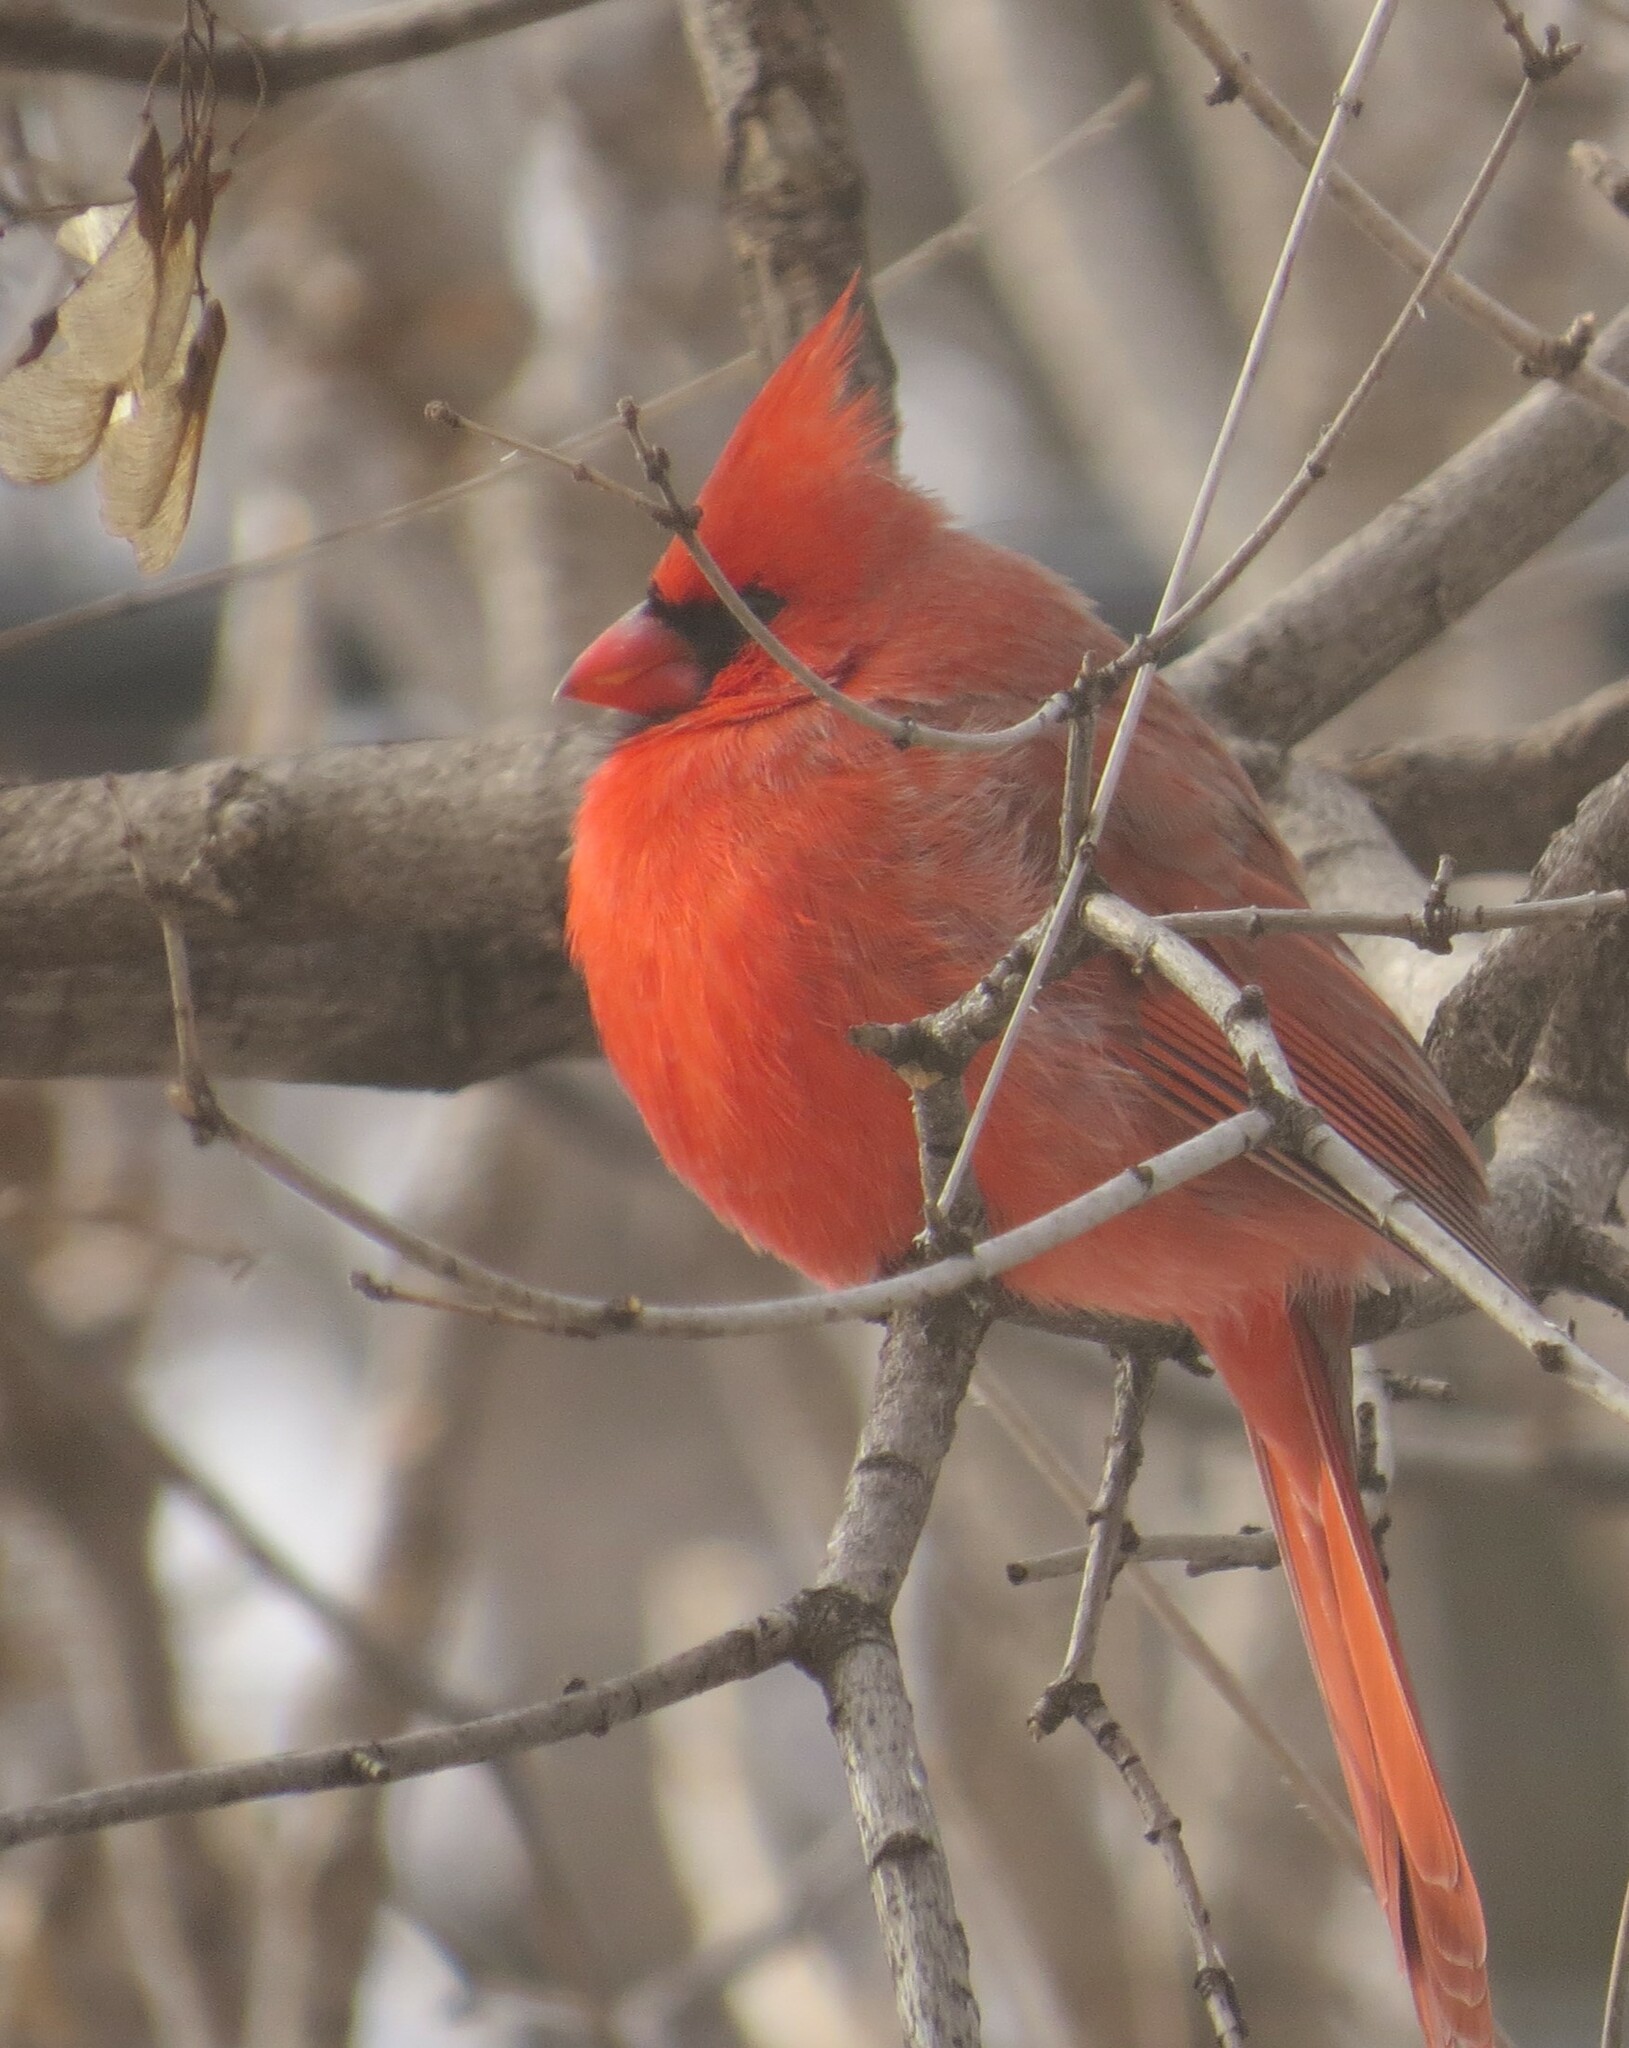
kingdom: Animalia
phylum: Chordata
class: Aves
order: Passeriformes
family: Cardinalidae
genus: Cardinalis
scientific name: Cardinalis cardinalis
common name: Northern cardinal
